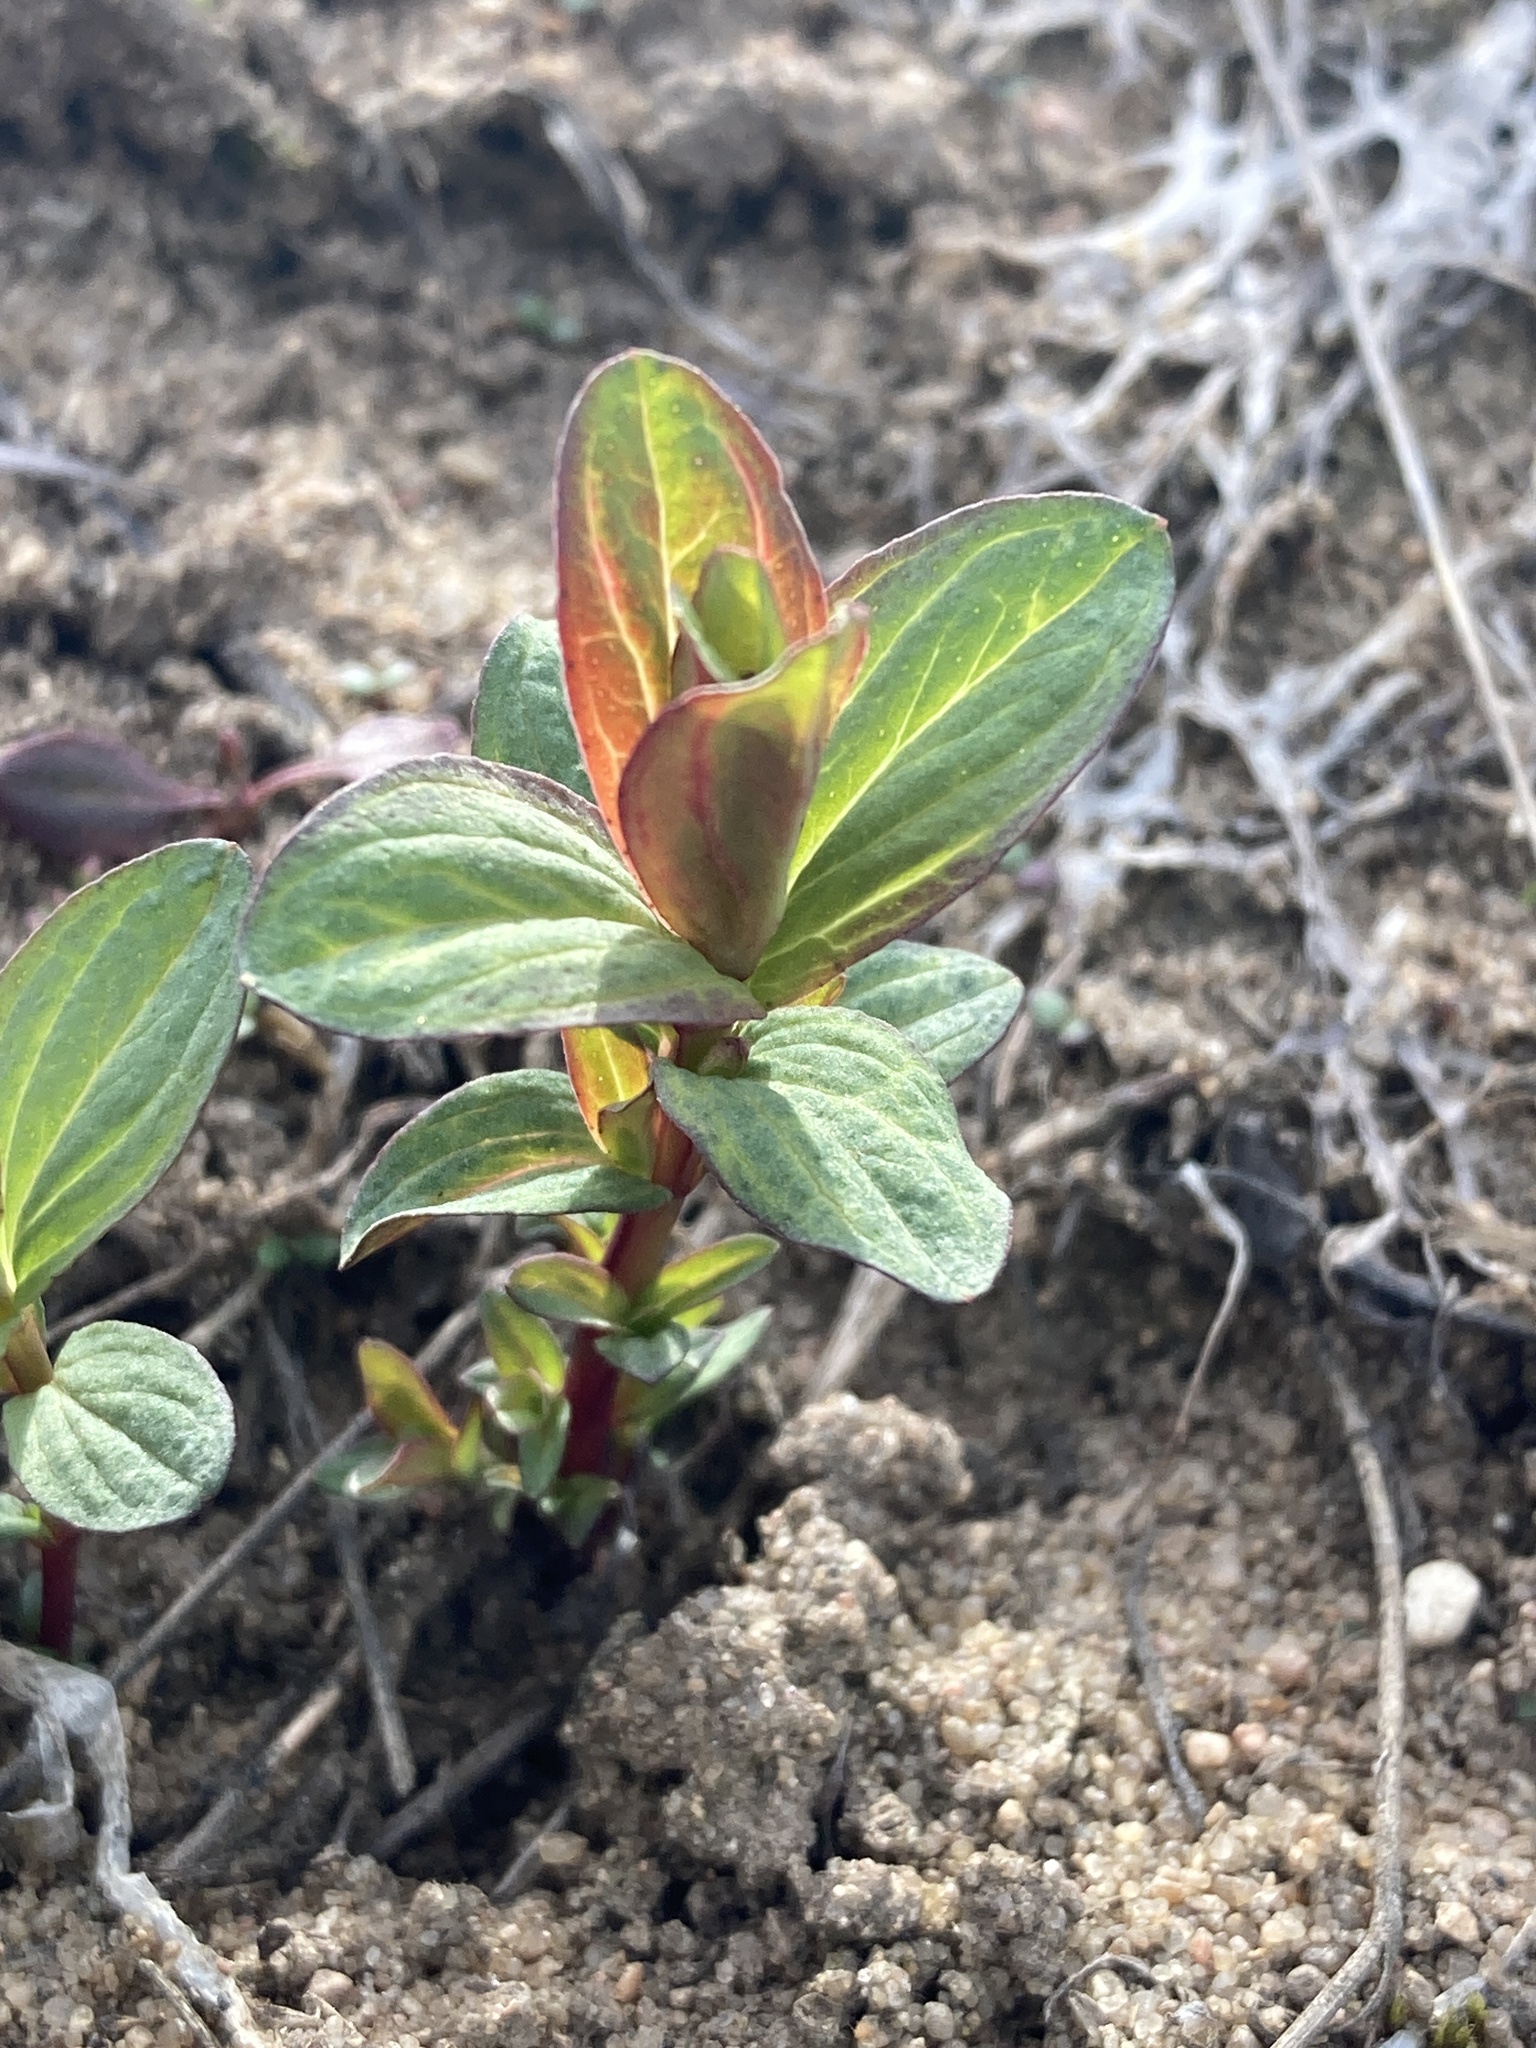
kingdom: Plantae
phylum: Tracheophyta
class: Magnoliopsida
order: Malpighiales
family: Hypericaceae
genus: Hypericum
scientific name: Hypericum maculatum
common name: Imperforate st. john's-wort
